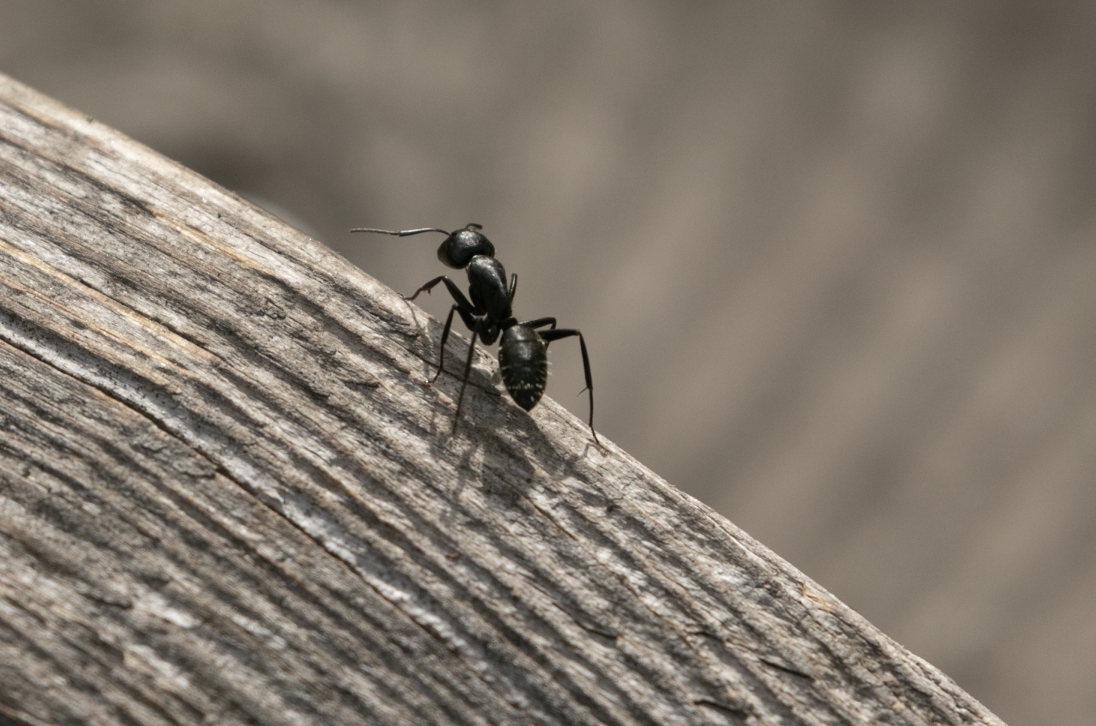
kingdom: Animalia
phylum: Arthropoda
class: Insecta
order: Hymenoptera
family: Formicidae
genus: Camponotus
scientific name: Camponotus vagus
